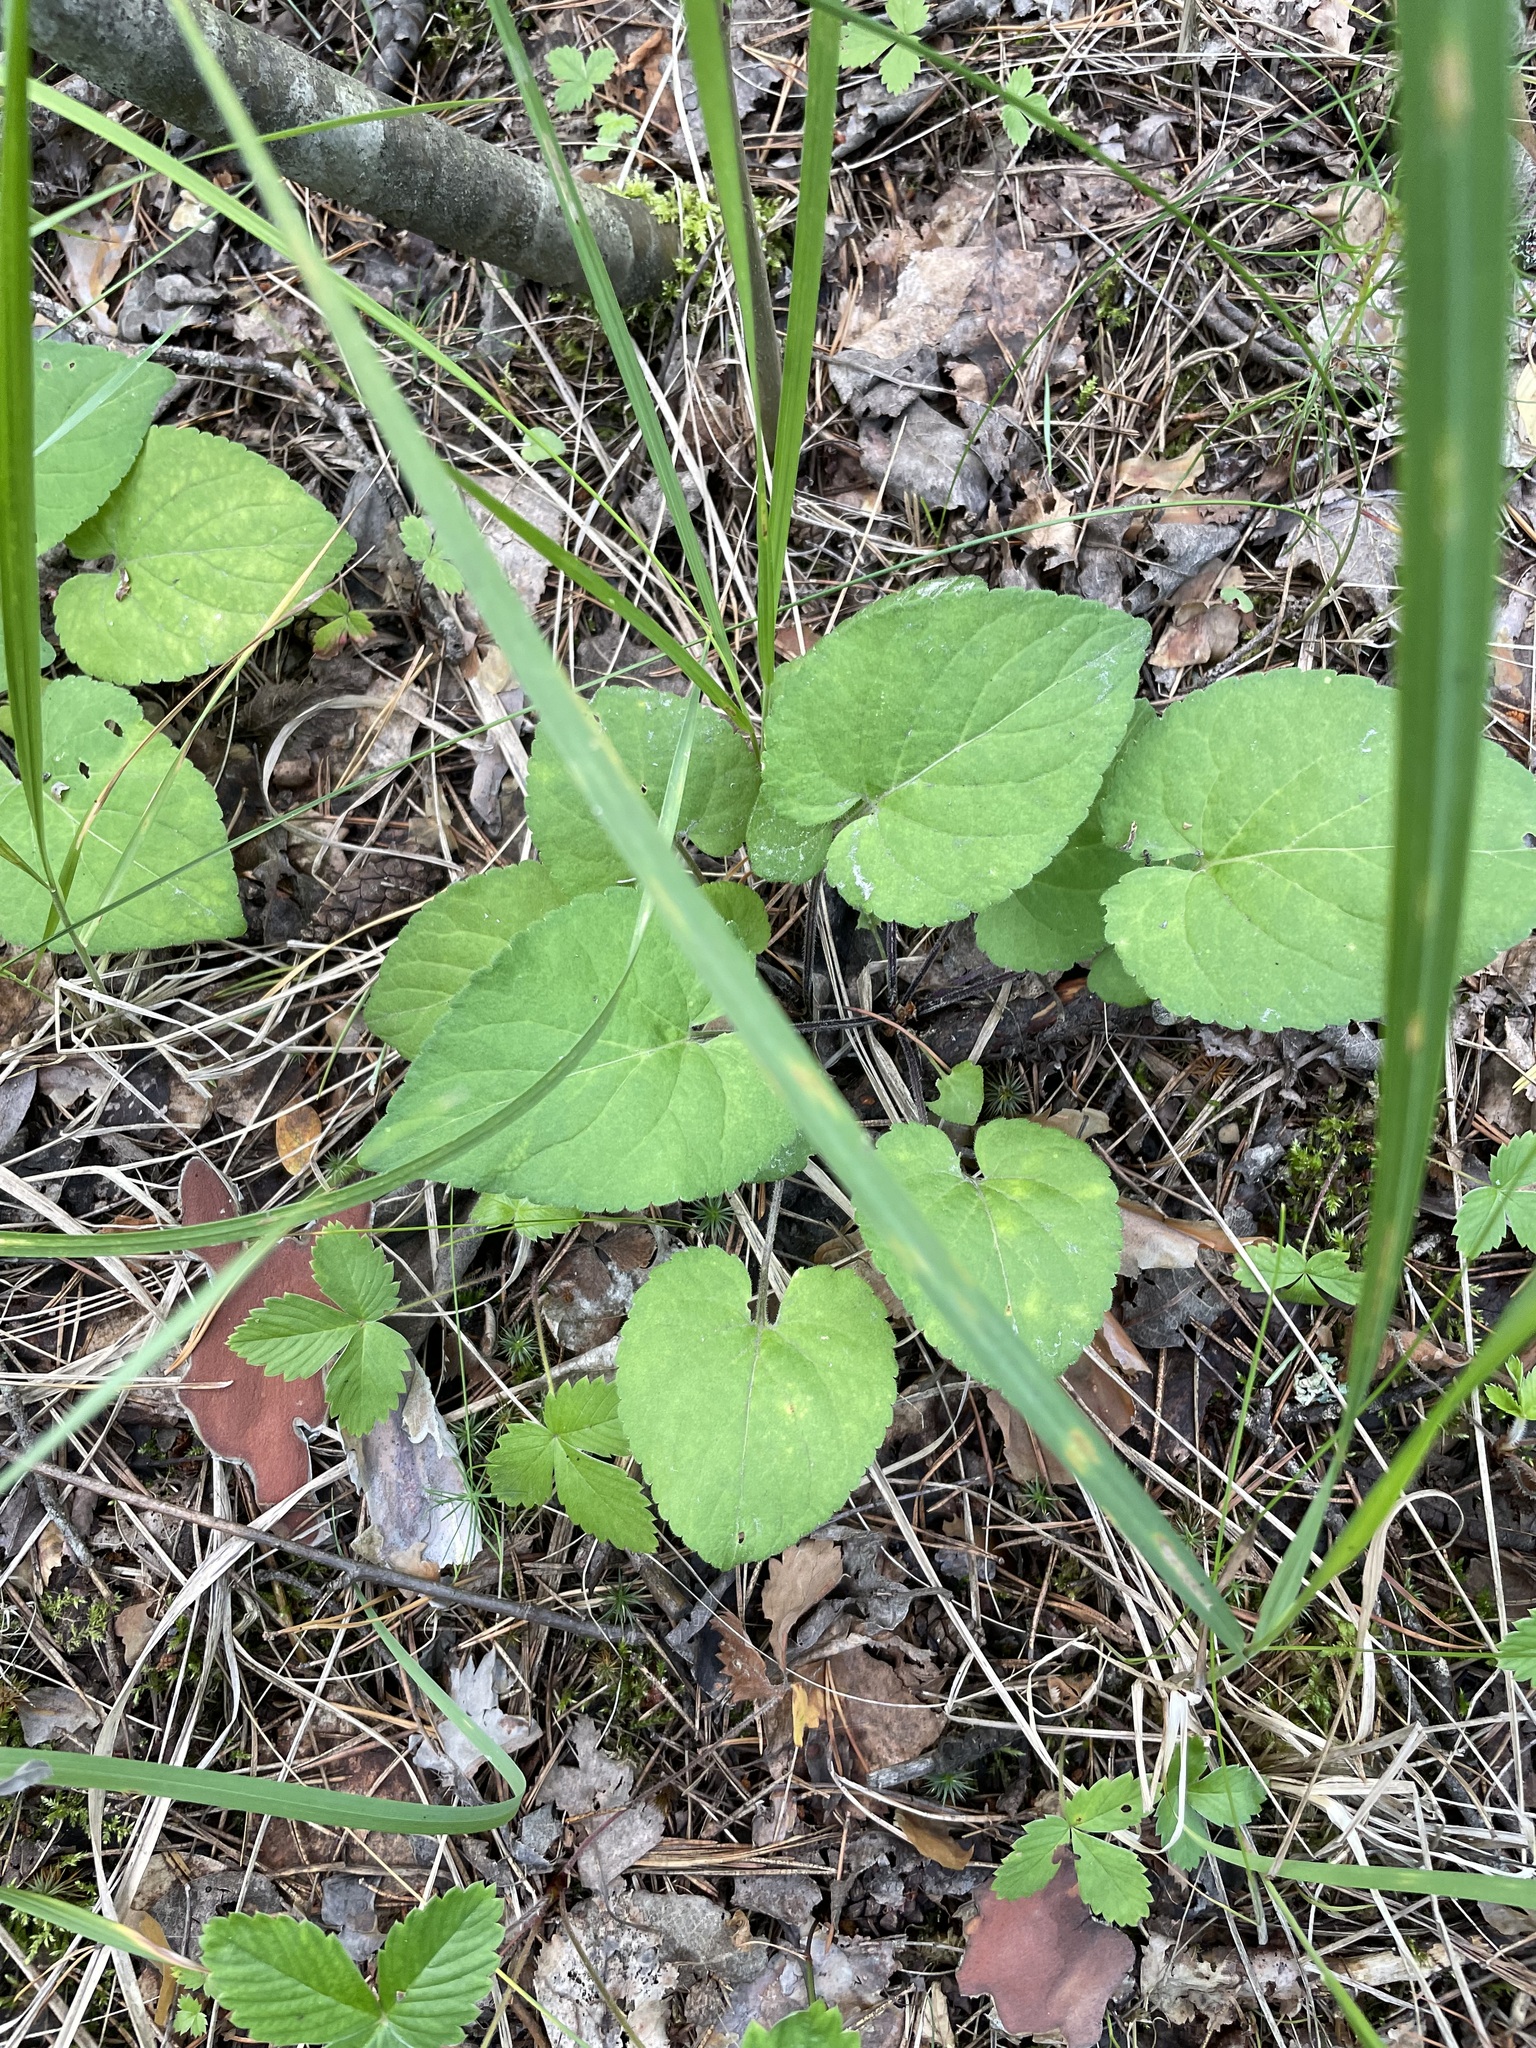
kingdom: Plantae
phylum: Tracheophyta
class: Magnoliopsida
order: Malpighiales
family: Violaceae
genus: Viola
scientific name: Viola collina
